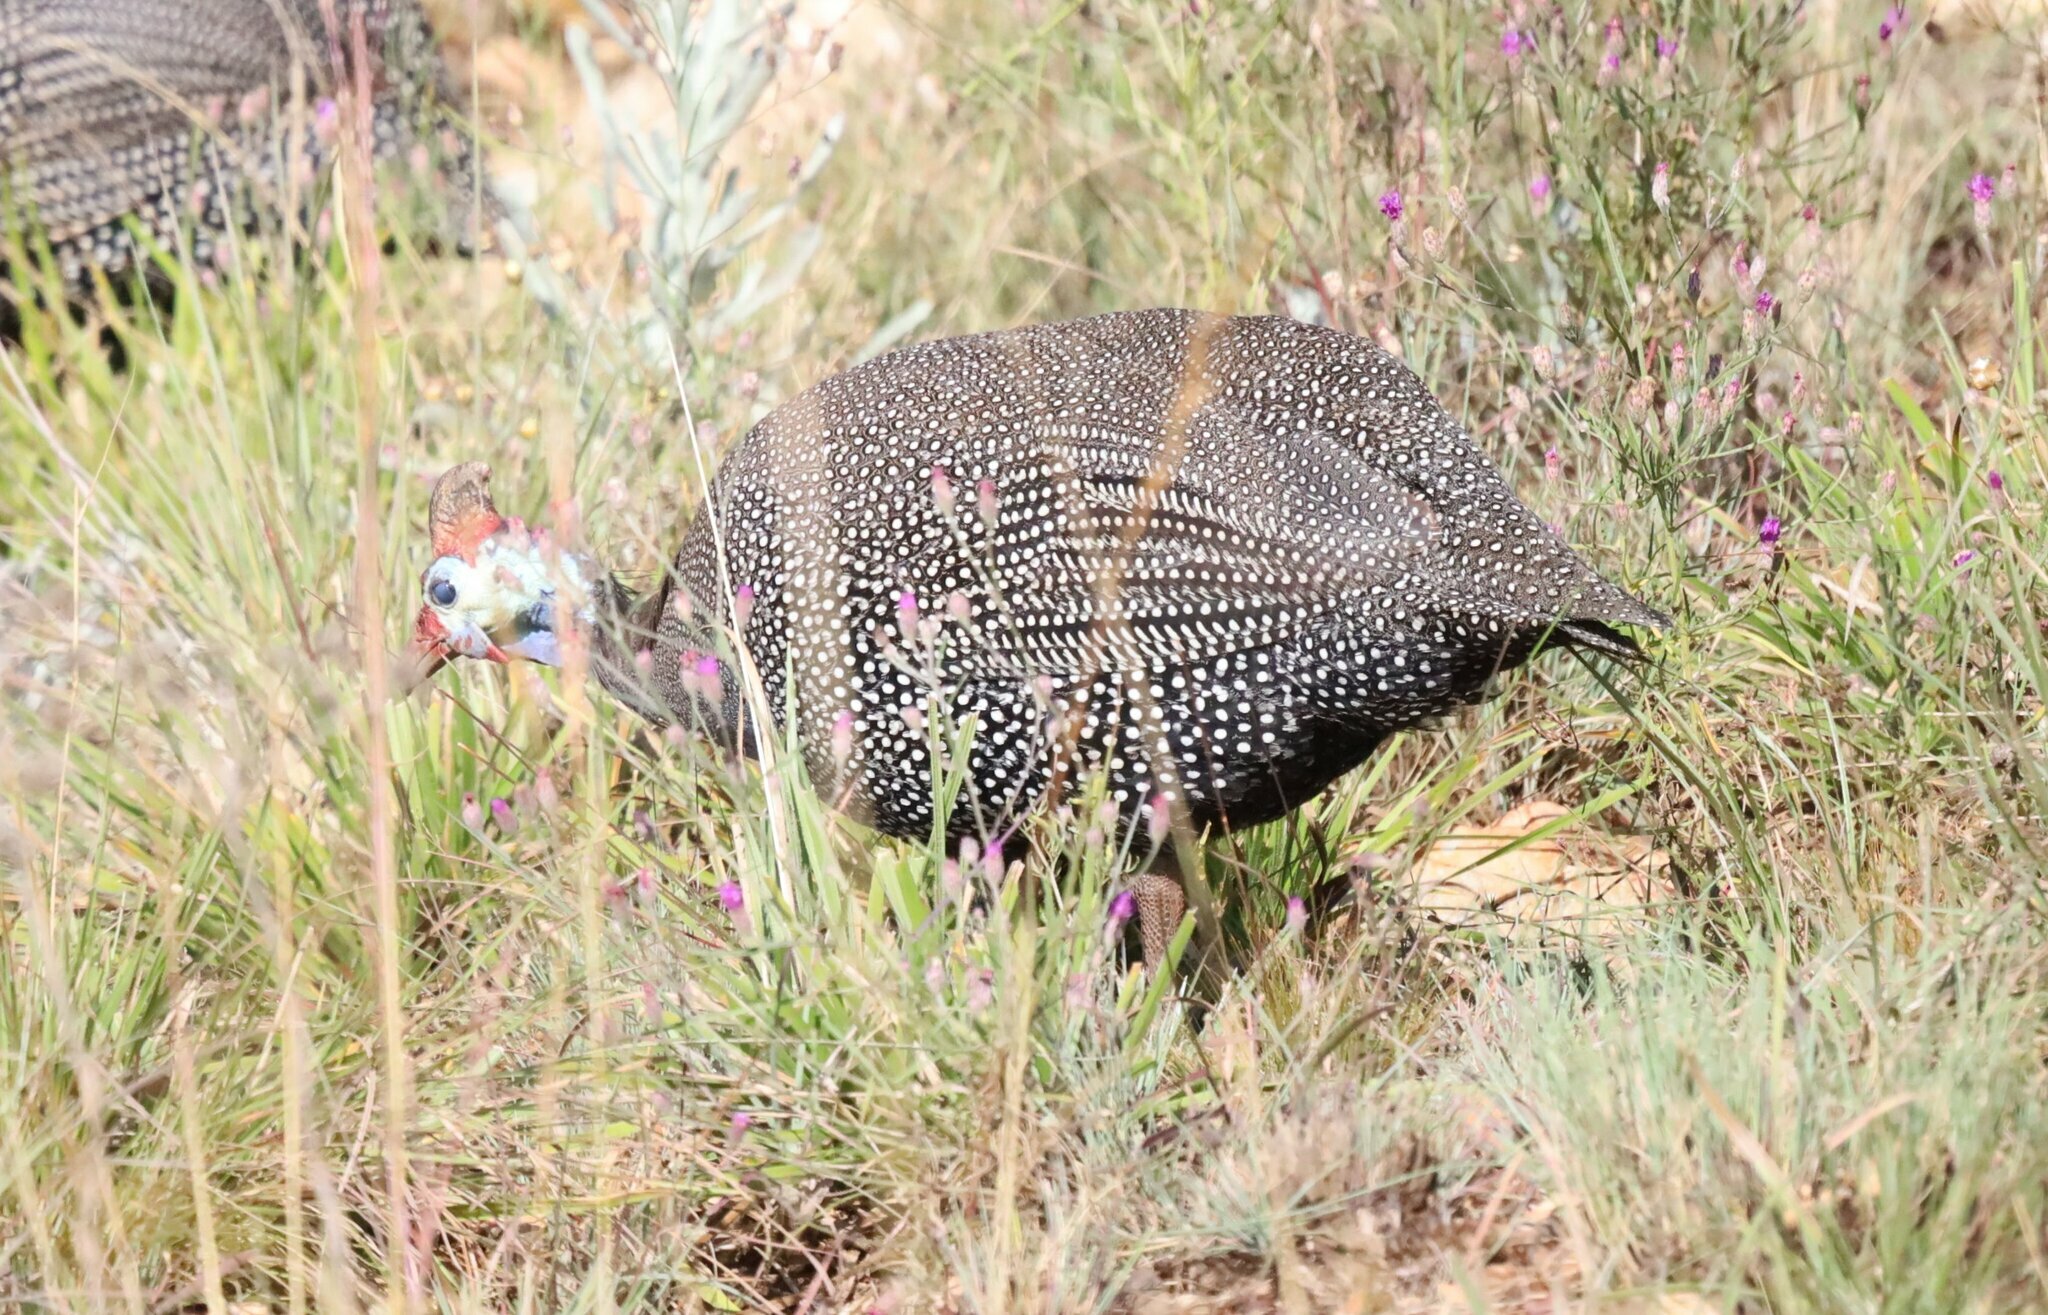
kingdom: Animalia
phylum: Chordata
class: Aves
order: Galliformes
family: Numididae
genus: Numida
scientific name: Numida meleagris
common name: Helmeted guineafowl
